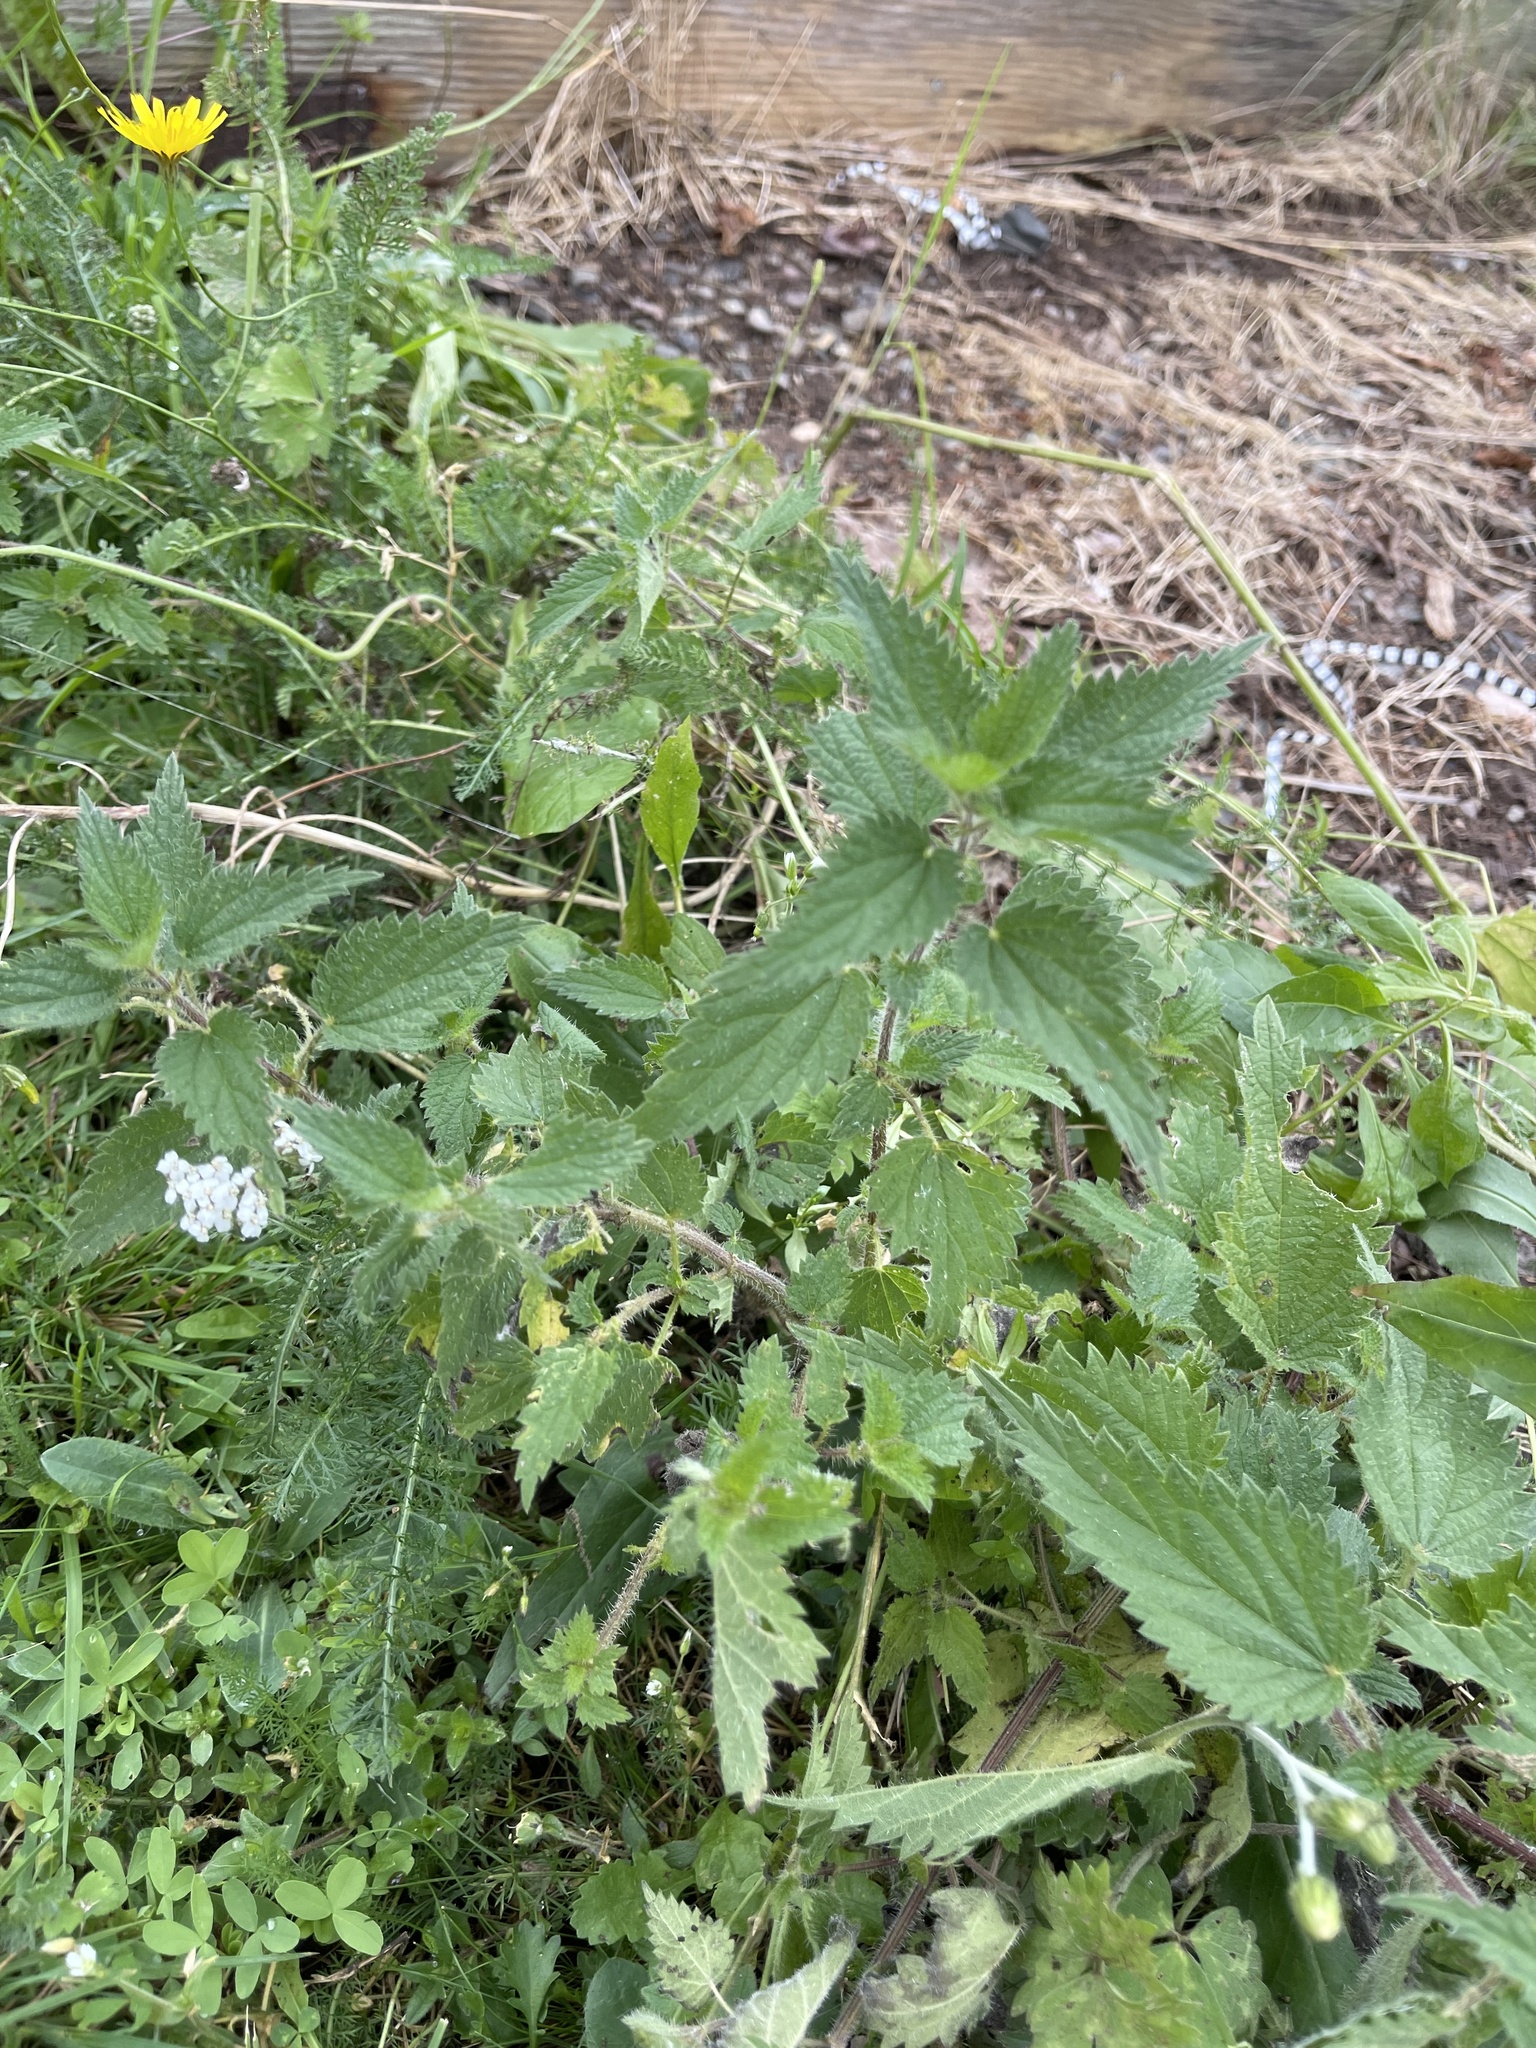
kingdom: Plantae
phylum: Tracheophyta
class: Magnoliopsida
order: Rosales
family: Urticaceae
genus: Urtica
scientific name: Urtica dioica
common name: Common nettle
